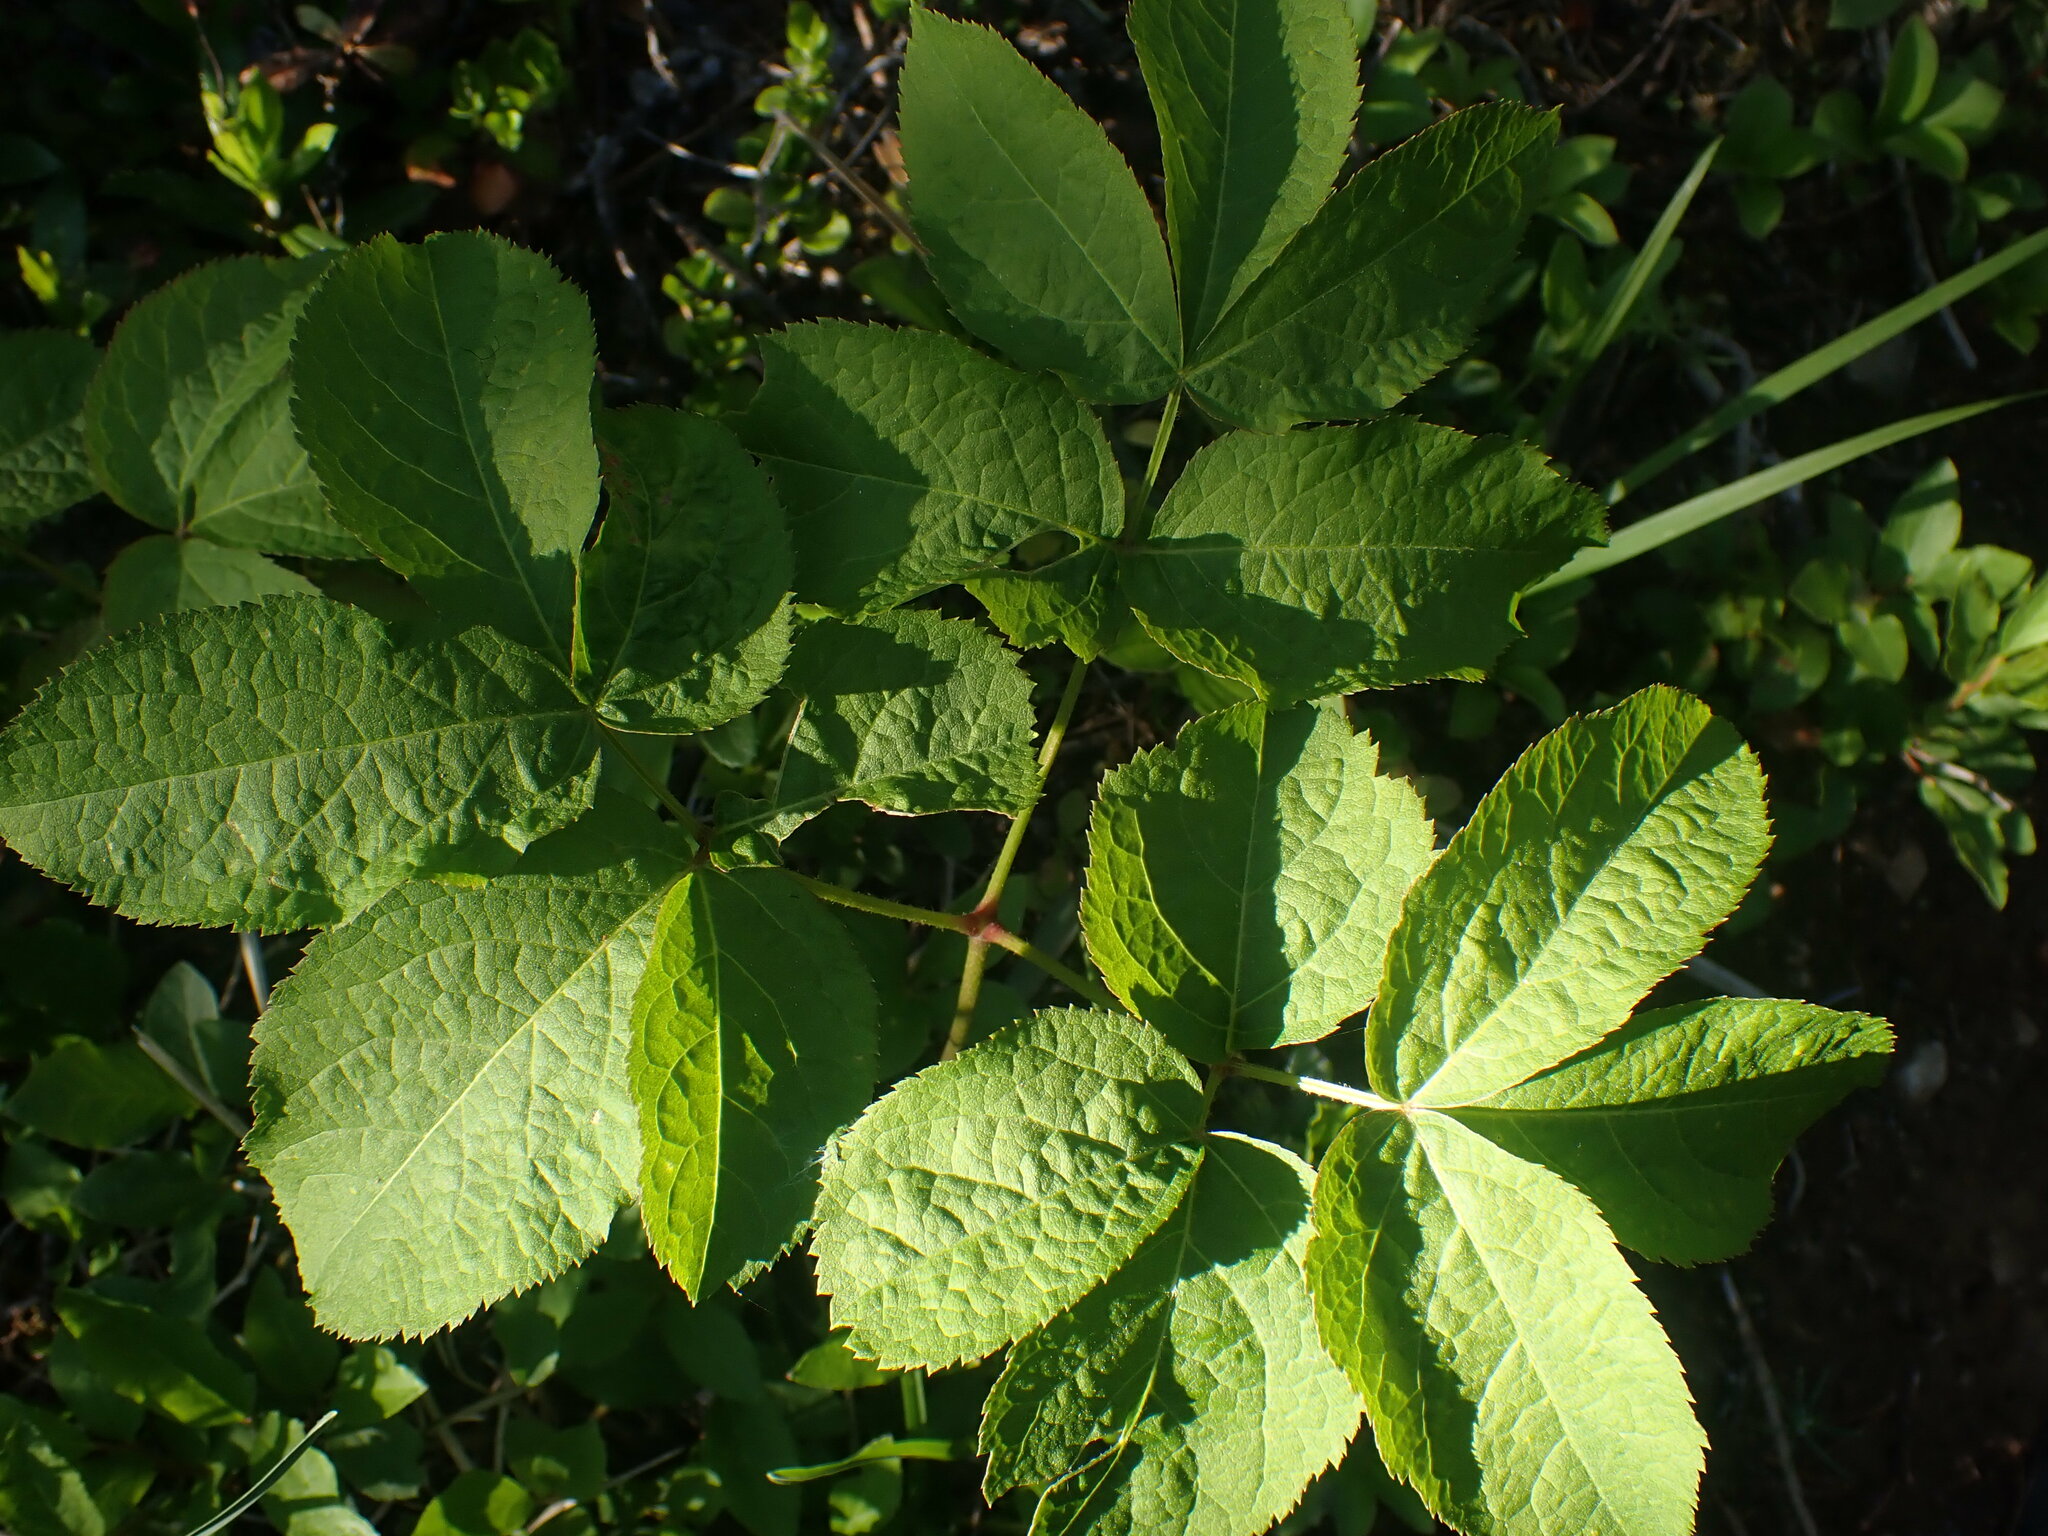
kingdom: Plantae
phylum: Tracheophyta
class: Magnoliopsida
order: Apiales
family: Araliaceae
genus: Aralia
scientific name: Aralia nudicaulis
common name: Wild sarsaparilla
